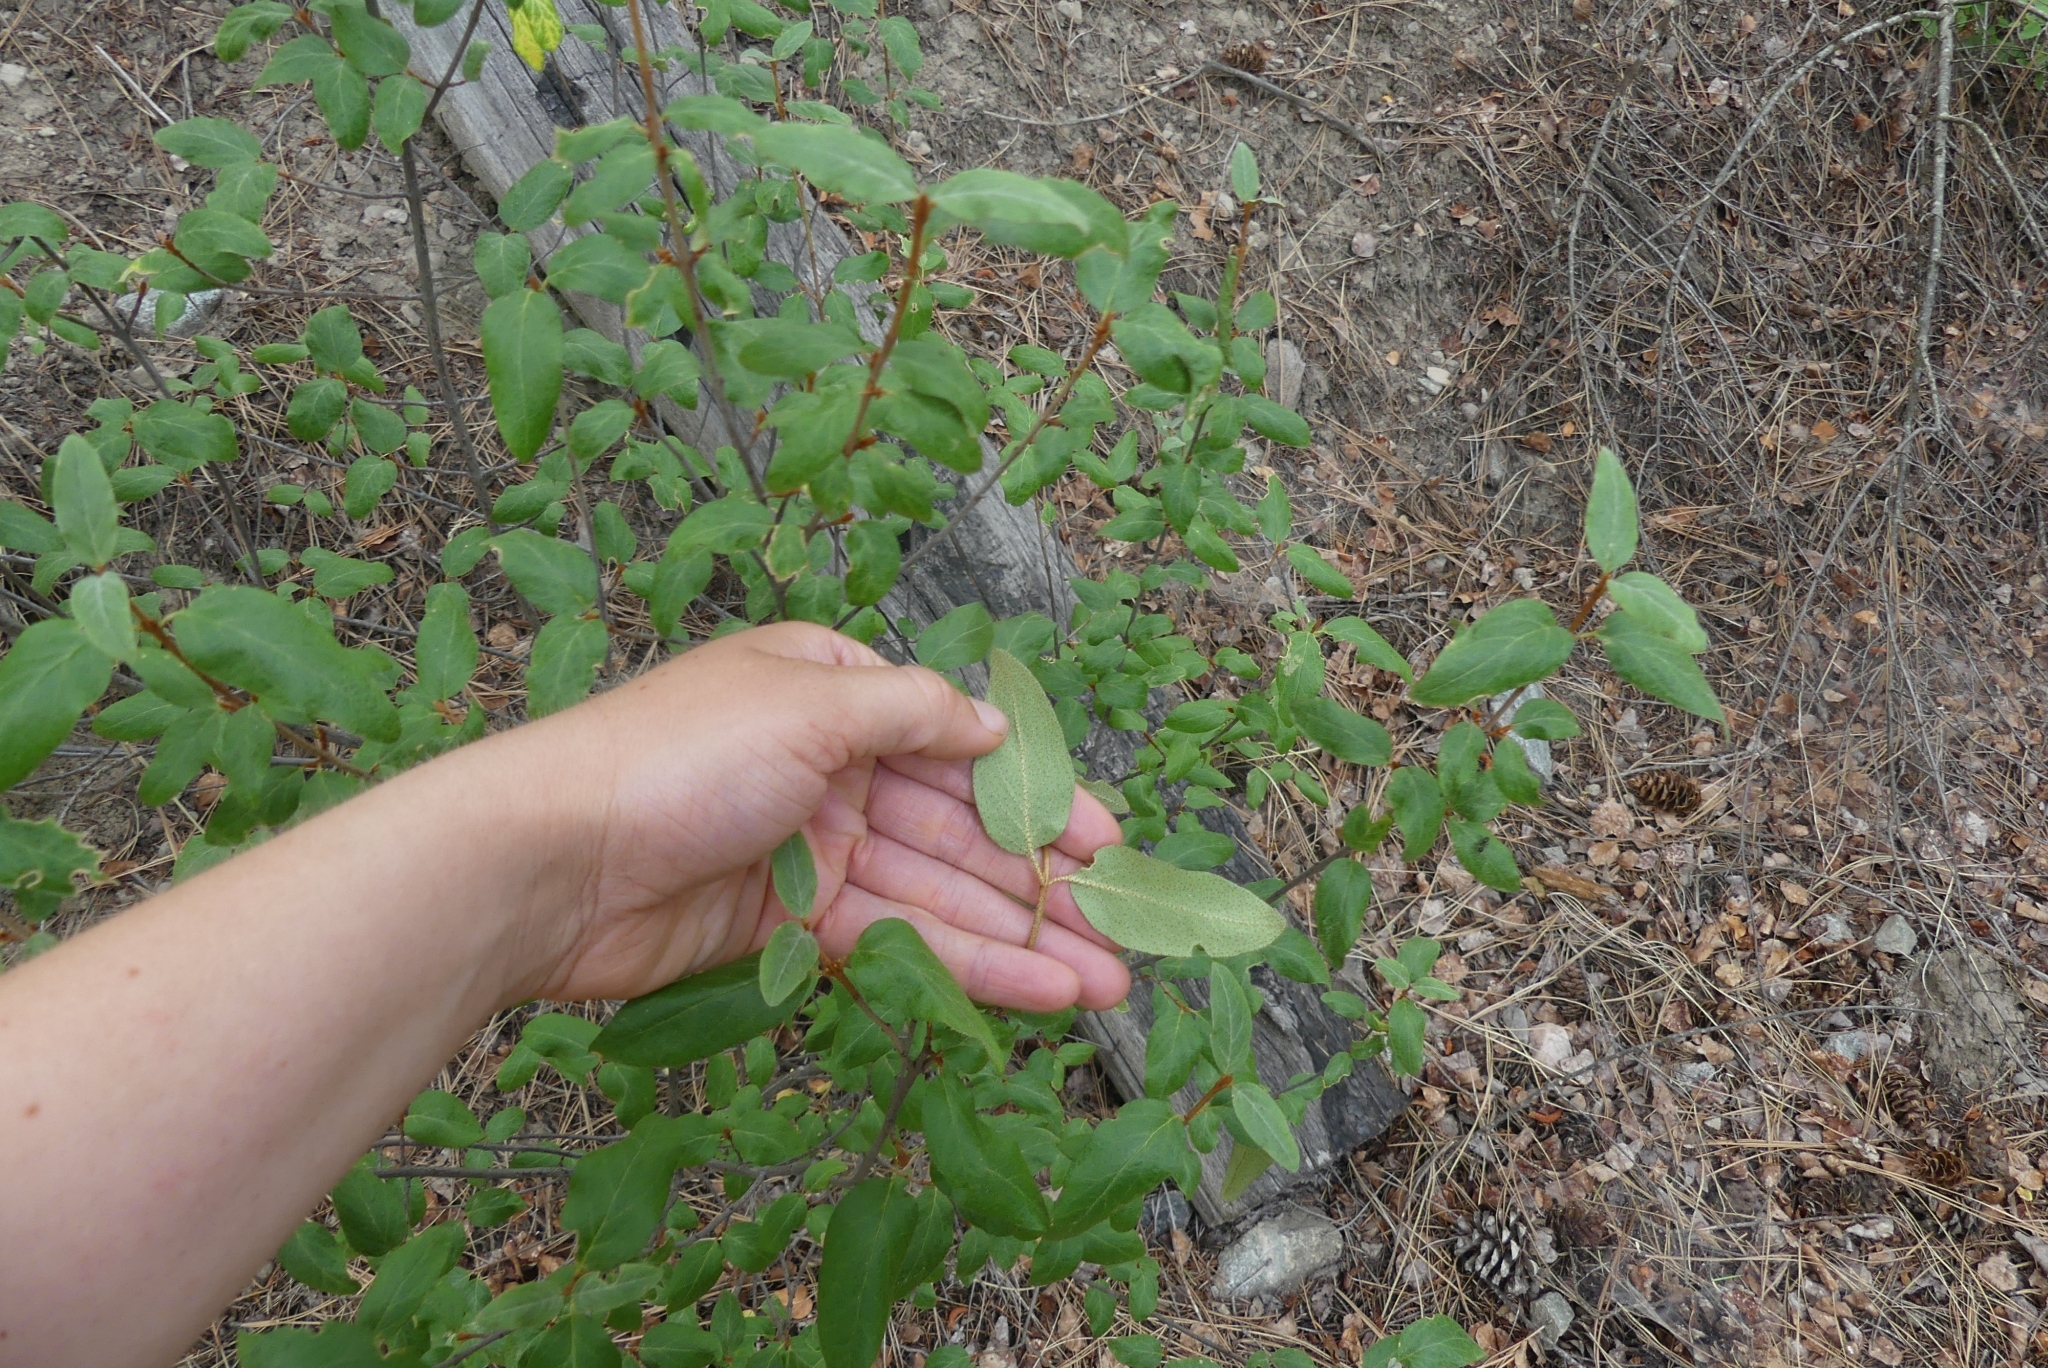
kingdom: Plantae
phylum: Tracheophyta
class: Magnoliopsida
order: Rosales
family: Elaeagnaceae
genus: Shepherdia
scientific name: Shepherdia canadensis
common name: Soapberry
